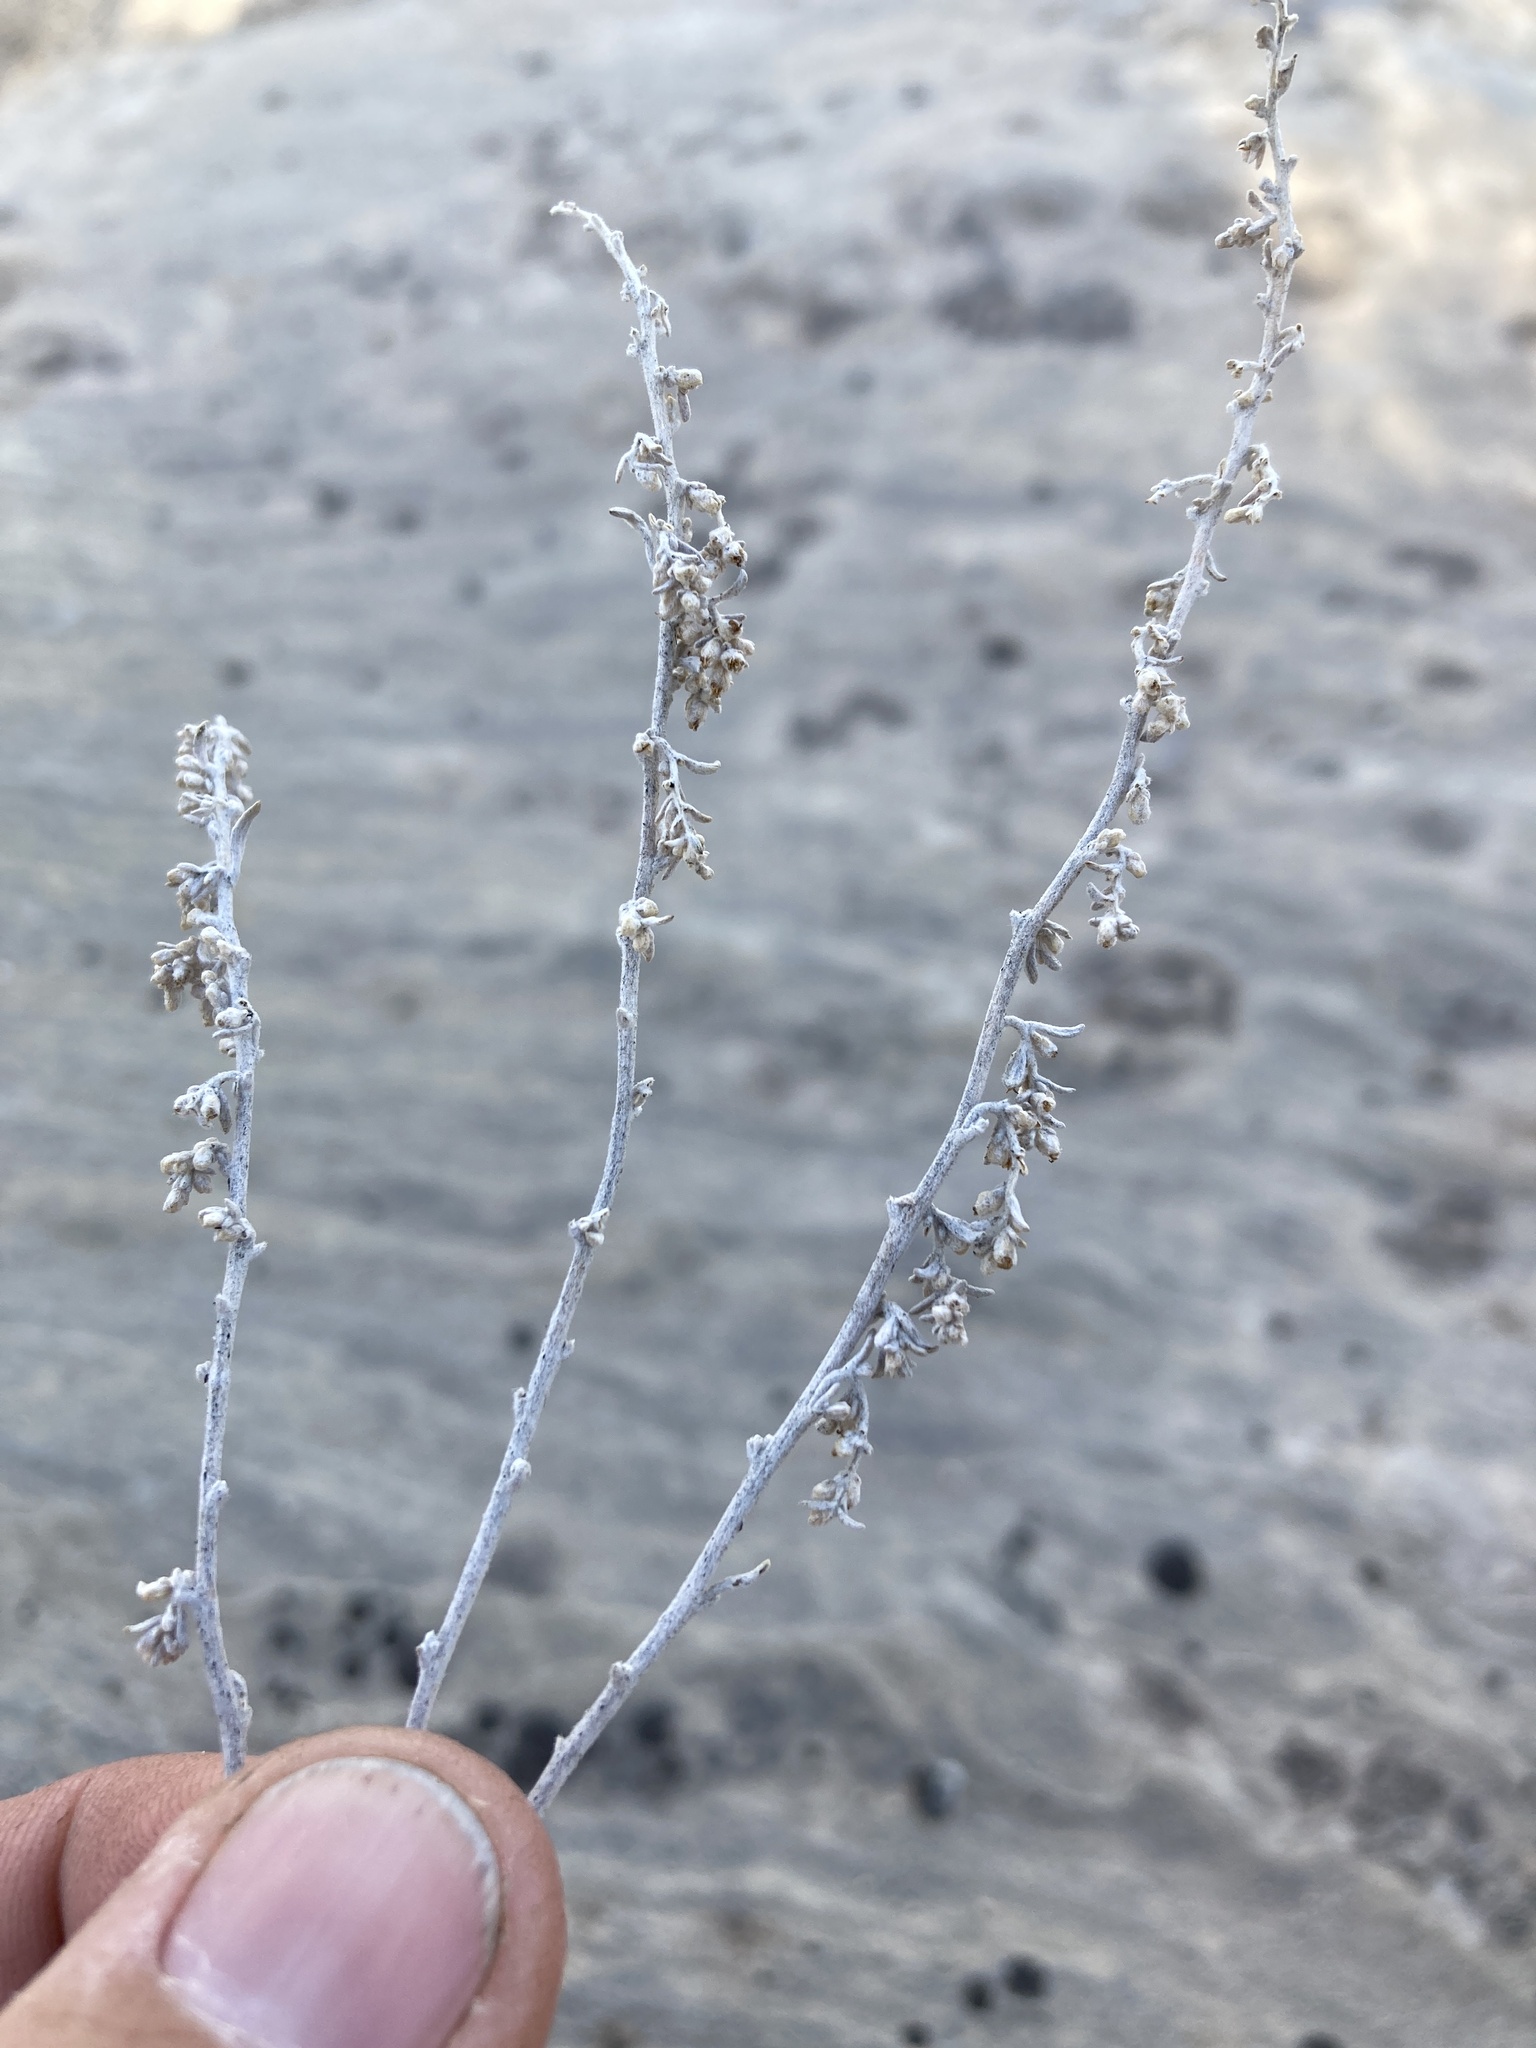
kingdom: Plantae
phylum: Tracheophyta
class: Magnoliopsida
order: Asterales
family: Asteraceae
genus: Artemisia
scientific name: Artemisia bigelovii
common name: Bigelow sagebrush
